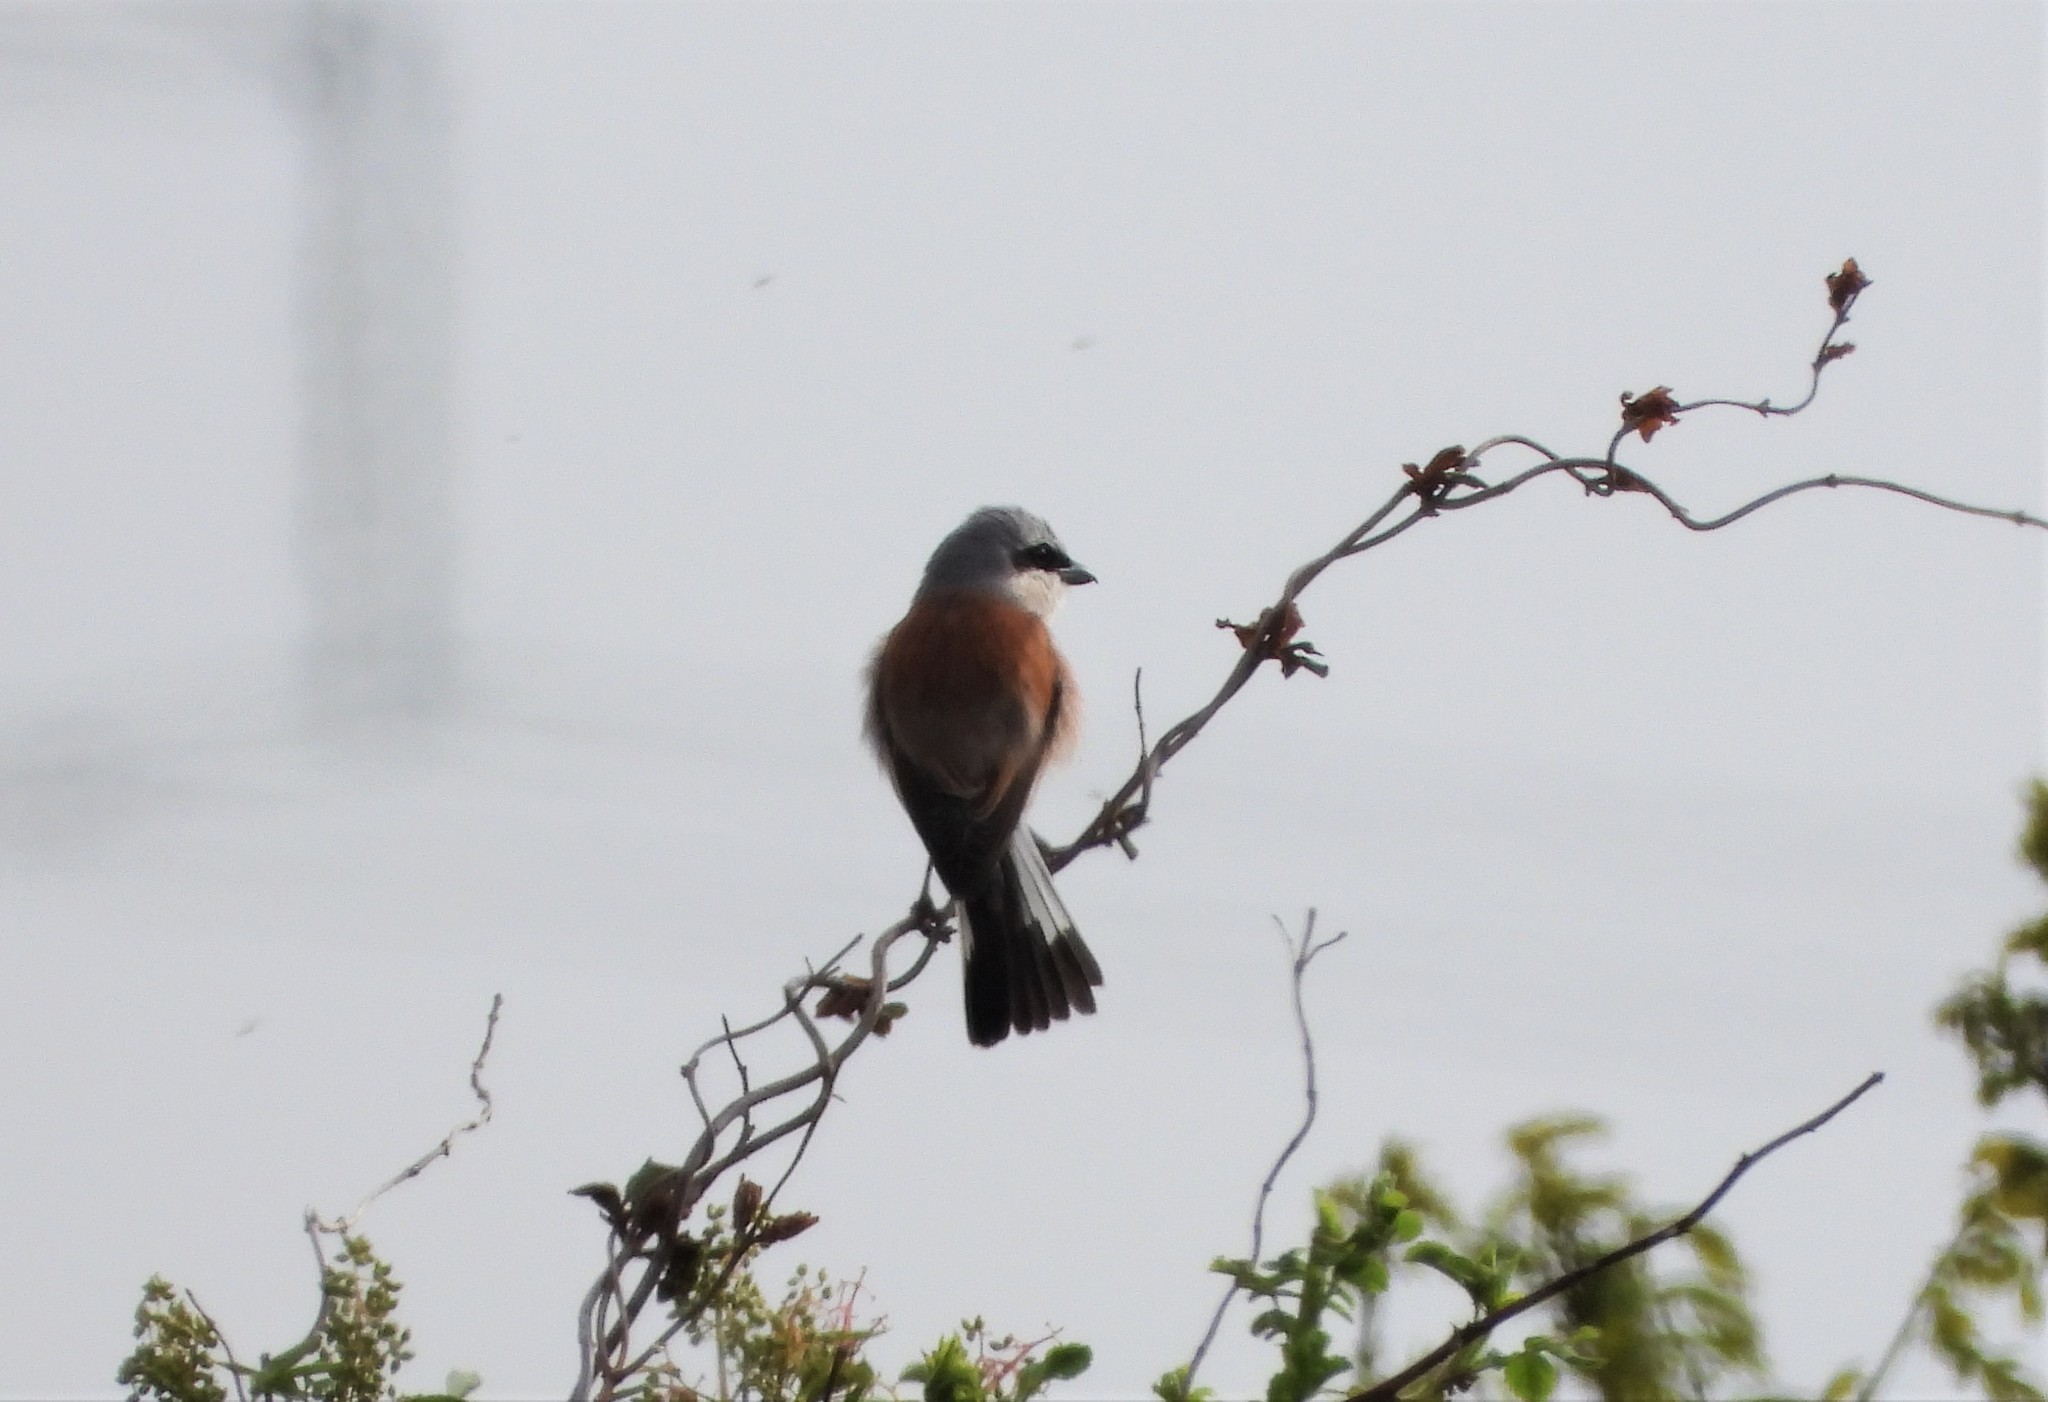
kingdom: Animalia
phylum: Chordata
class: Aves
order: Passeriformes
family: Laniidae
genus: Lanius
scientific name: Lanius collurio
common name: Red-backed shrike
